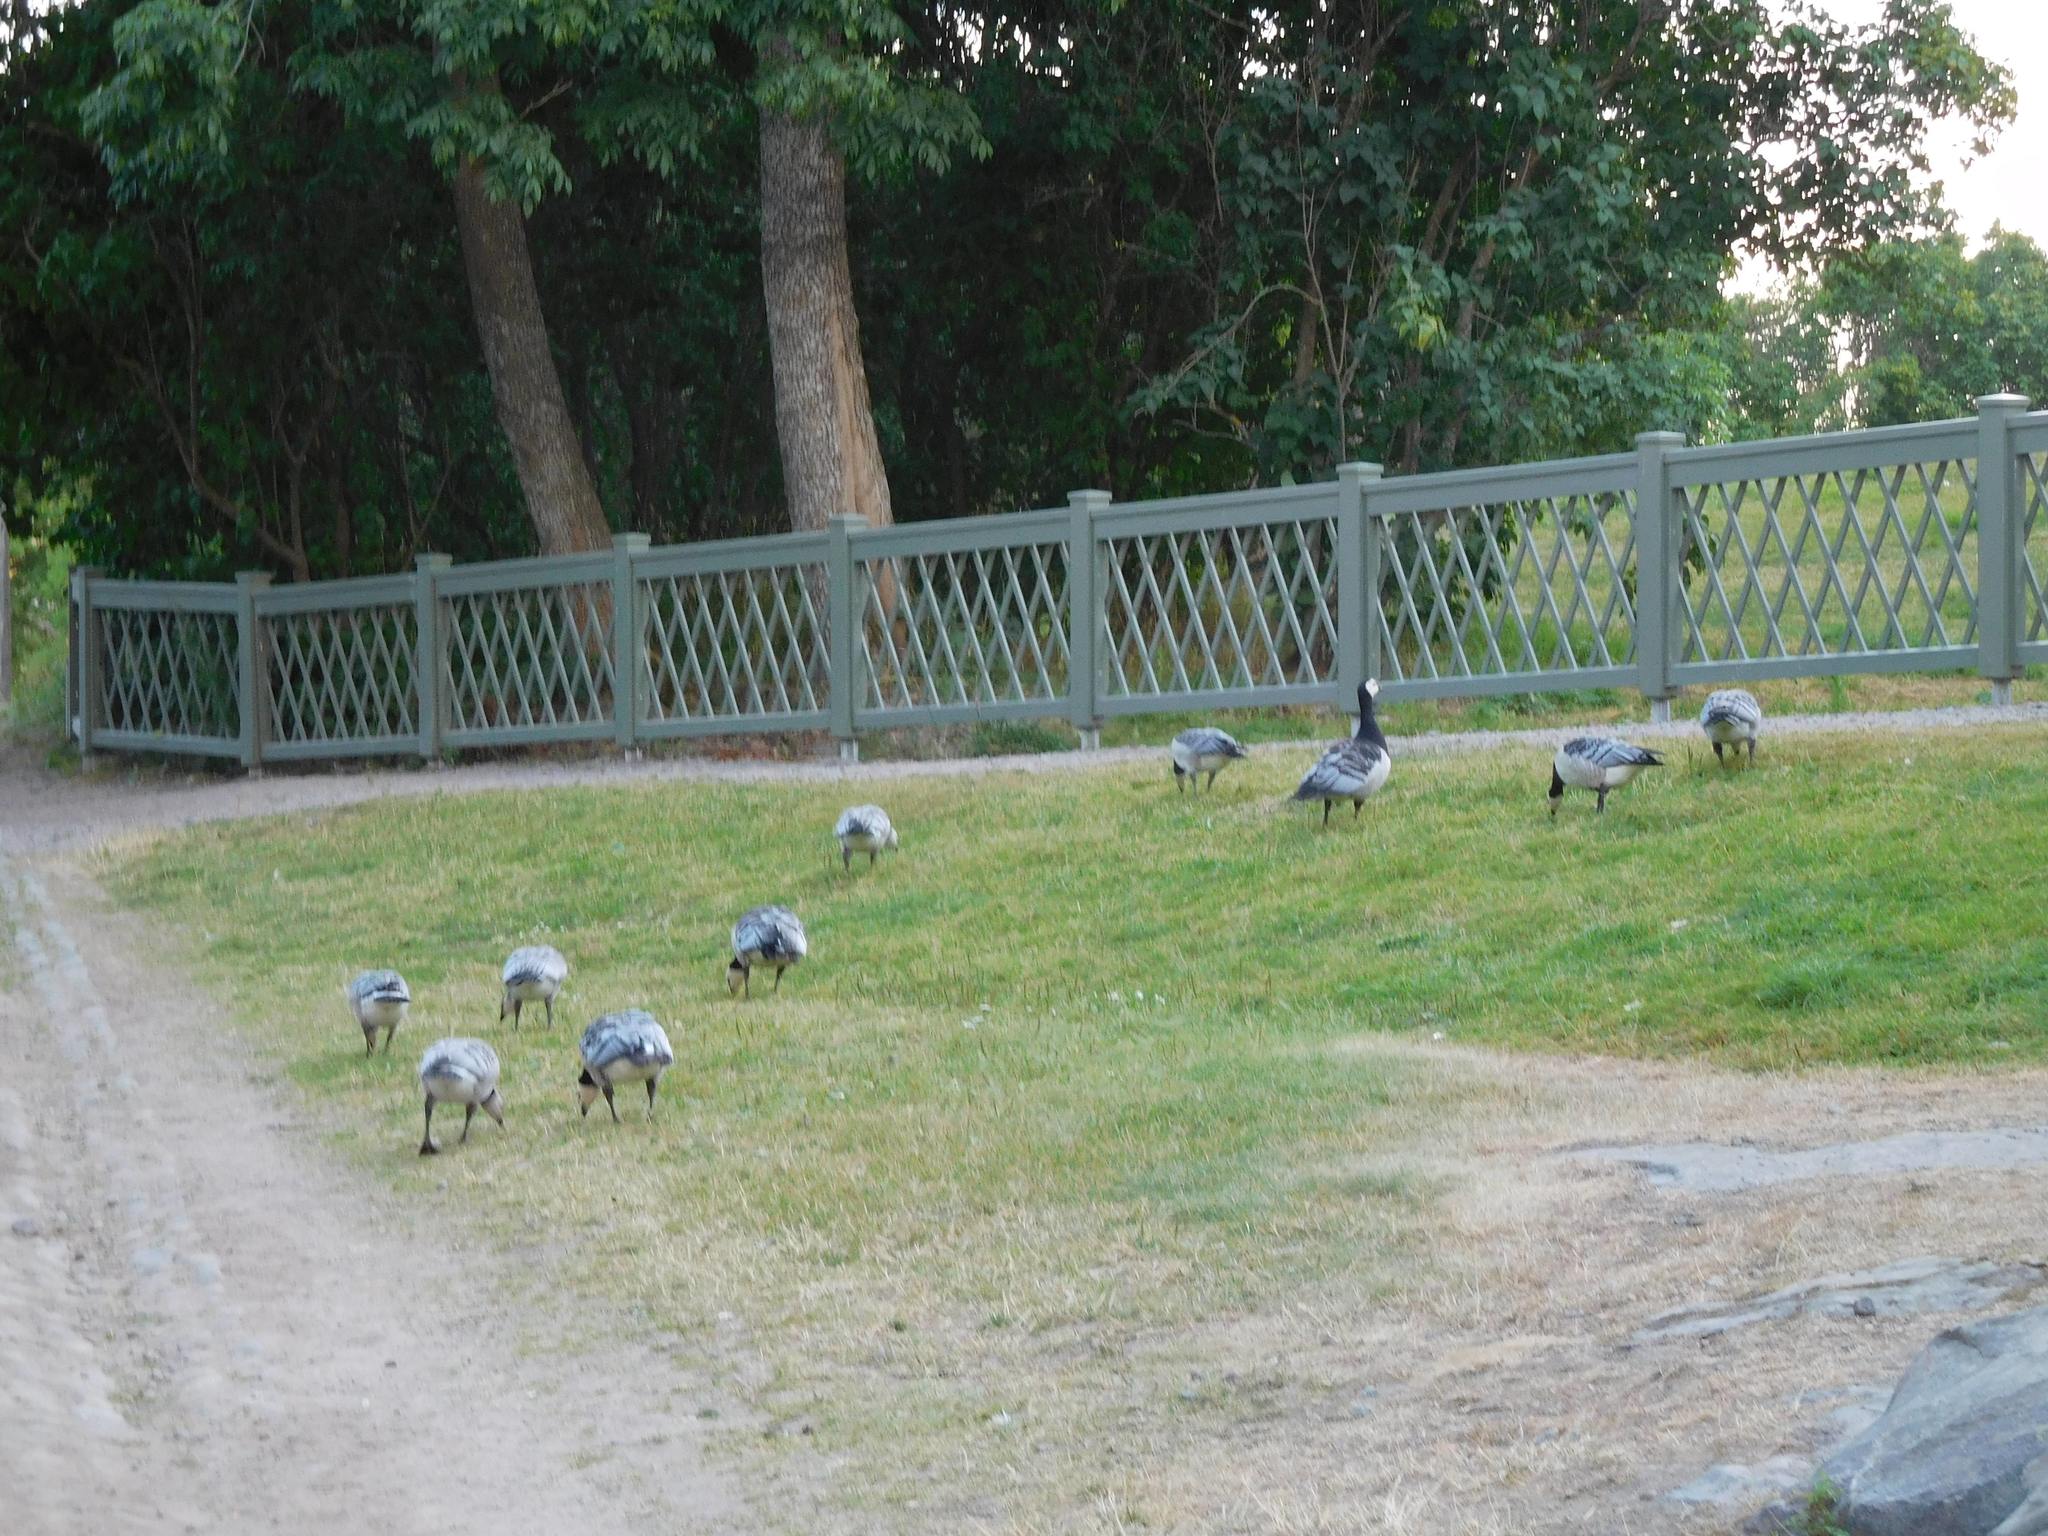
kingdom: Animalia
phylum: Chordata
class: Aves
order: Anseriformes
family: Anatidae
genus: Branta
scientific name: Branta leucopsis
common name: Barnacle goose
